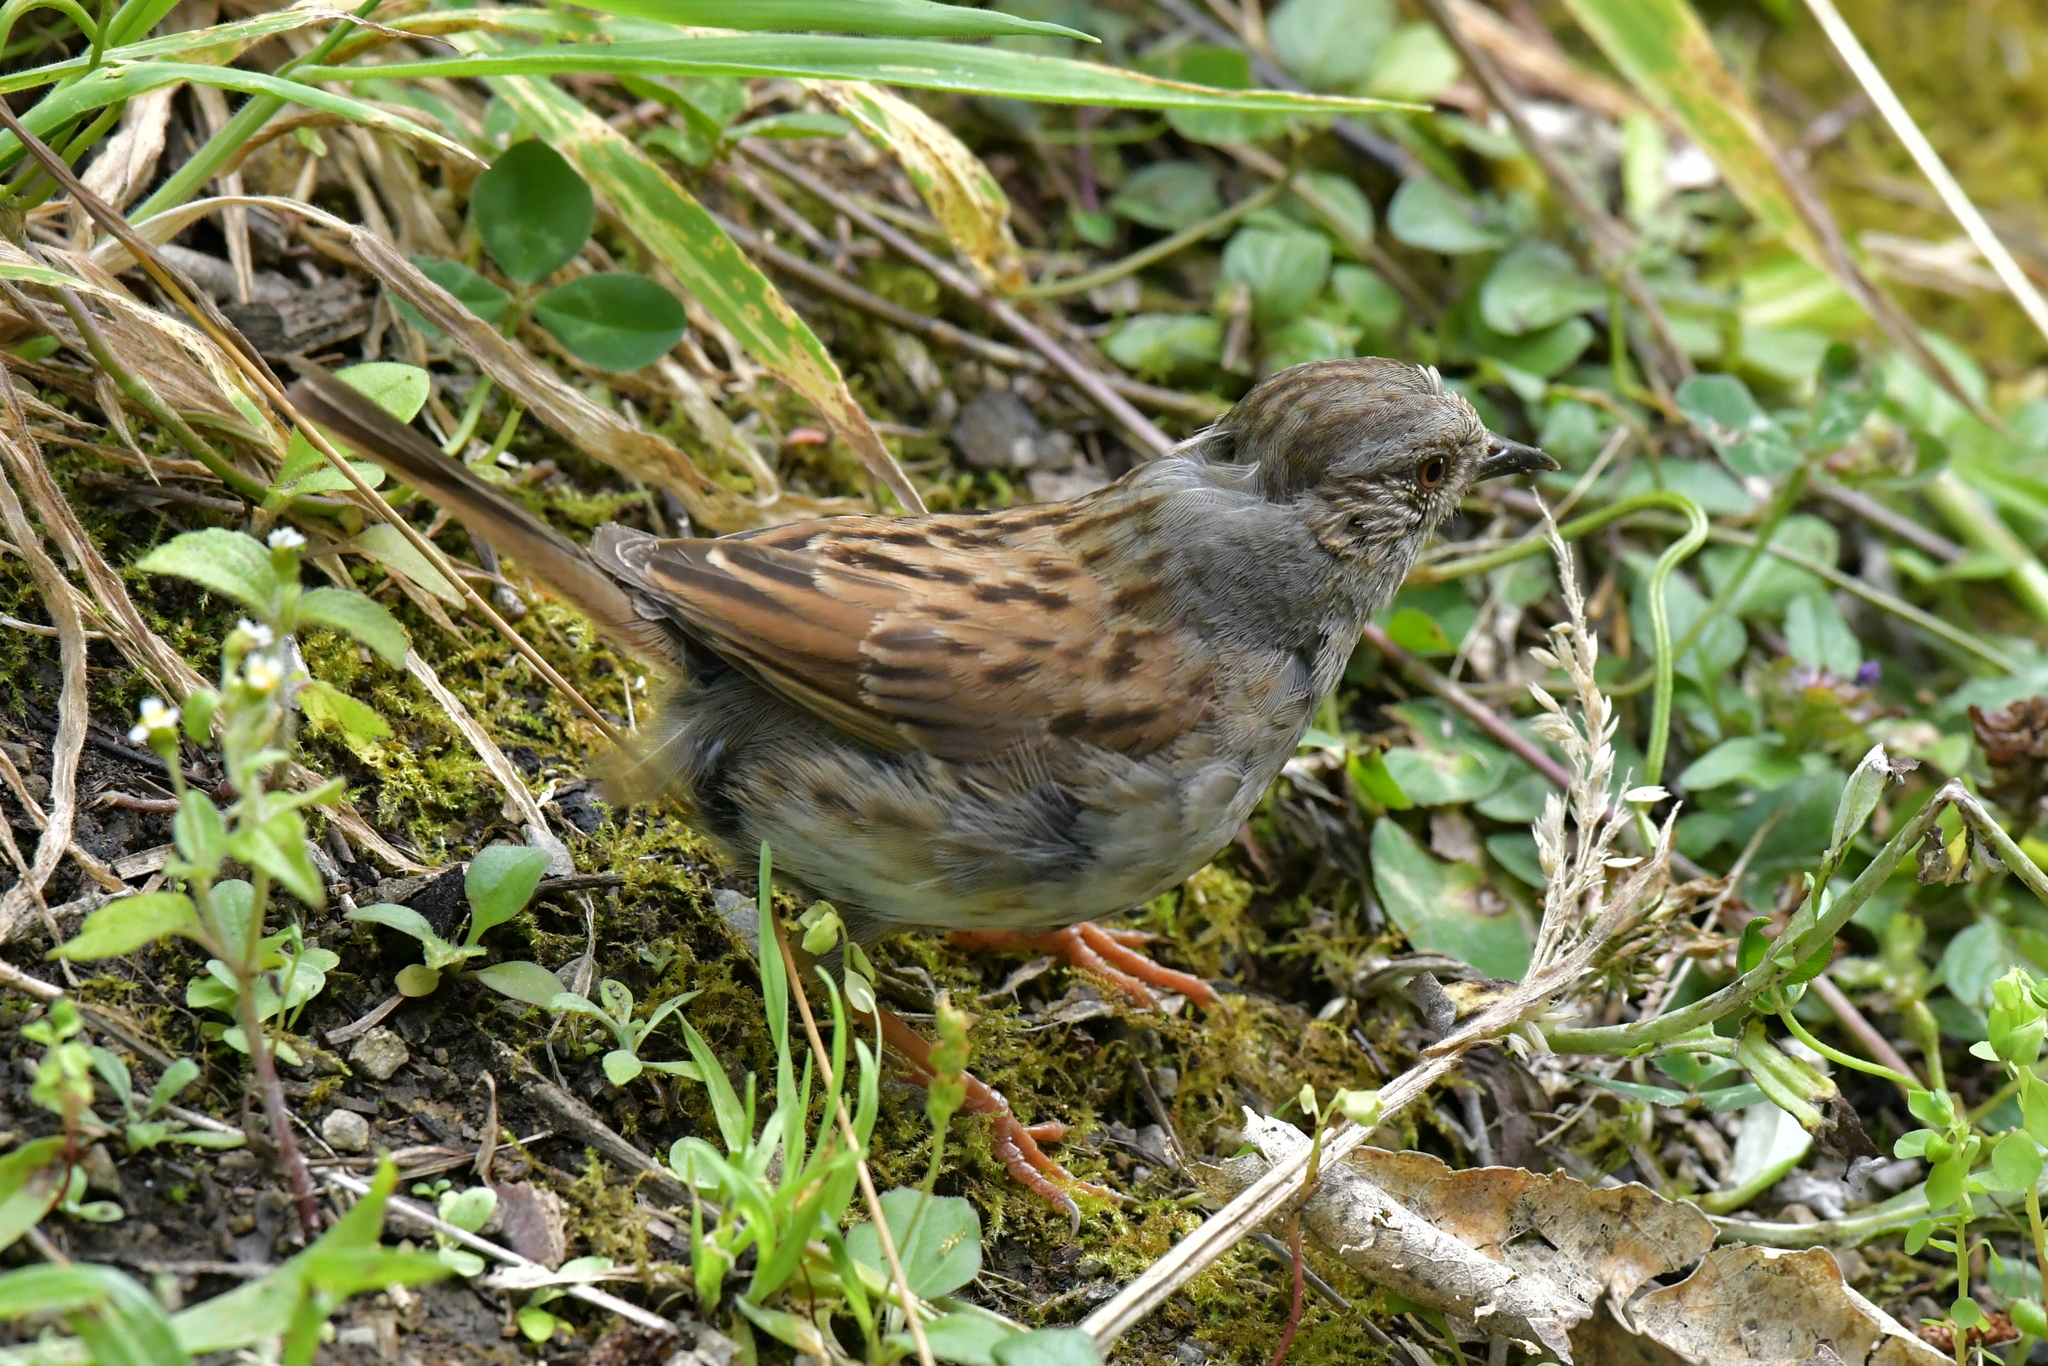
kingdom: Animalia
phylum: Chordata
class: Aves
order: Passeriformes
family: Prunellidae
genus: Prunella
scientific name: Prunella modularis
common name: Dunnock
